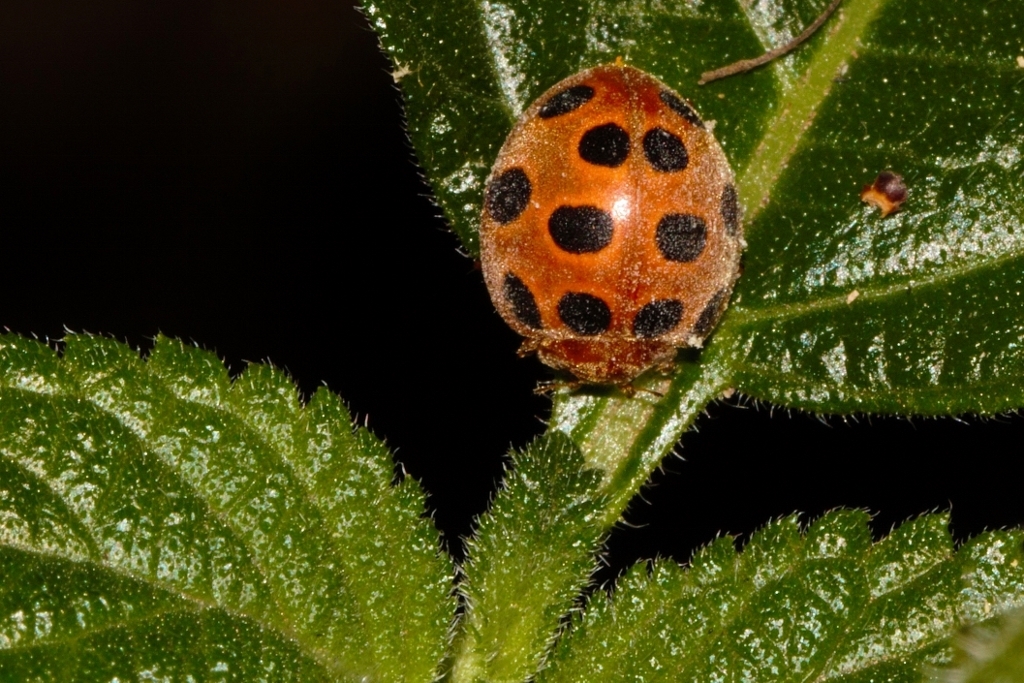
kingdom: Animalia
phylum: Arthropoda
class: Insecta
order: Coleoptera
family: Coccinellidae
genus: Chnootriba
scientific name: Chnootriba
